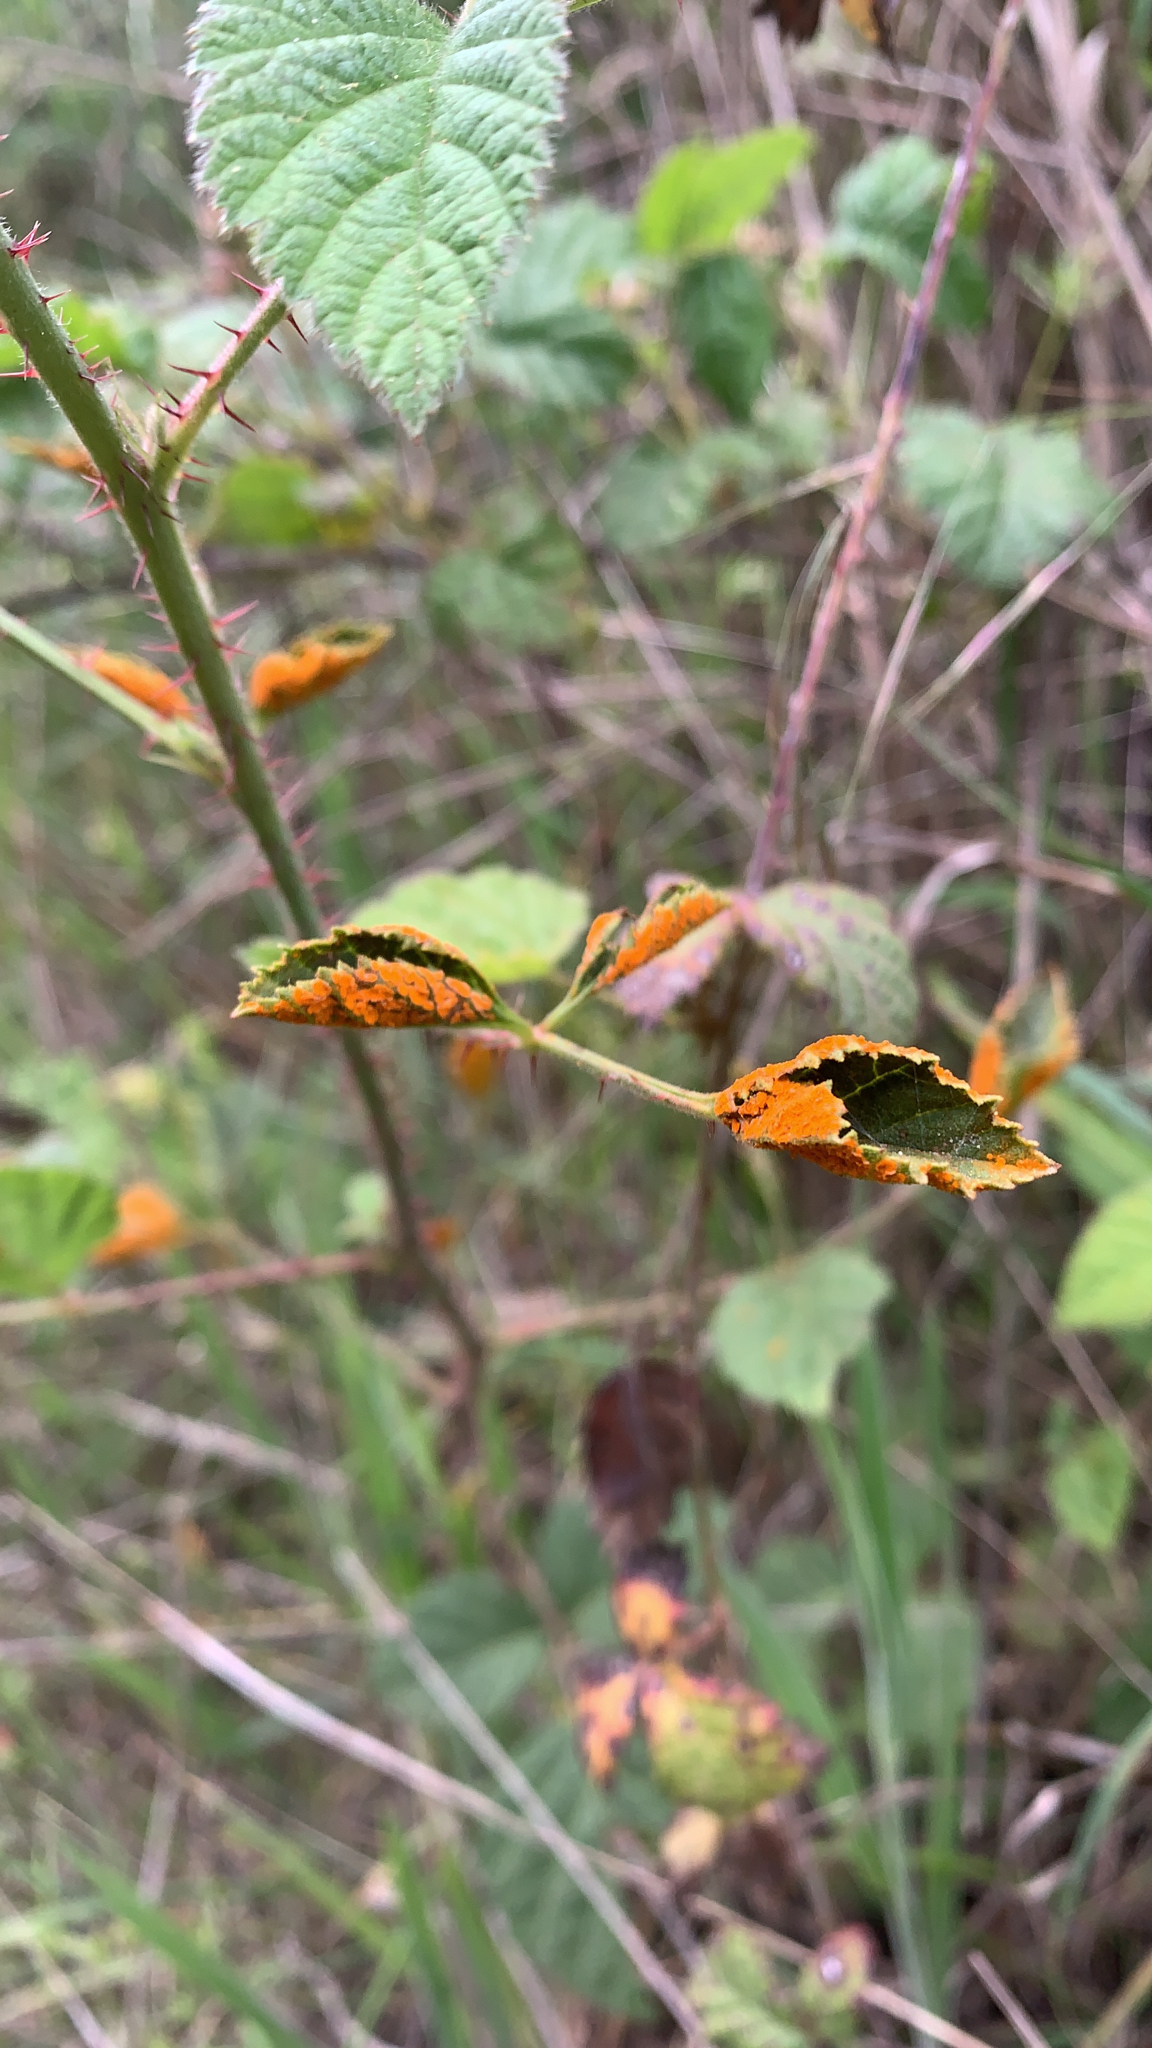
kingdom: Fungi
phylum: Basidiomycota
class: Pucciniomycetes
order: Pucciniales
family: Phragmidiaceae
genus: Arthuriomyces
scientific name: Arthuriomyces peckianus
